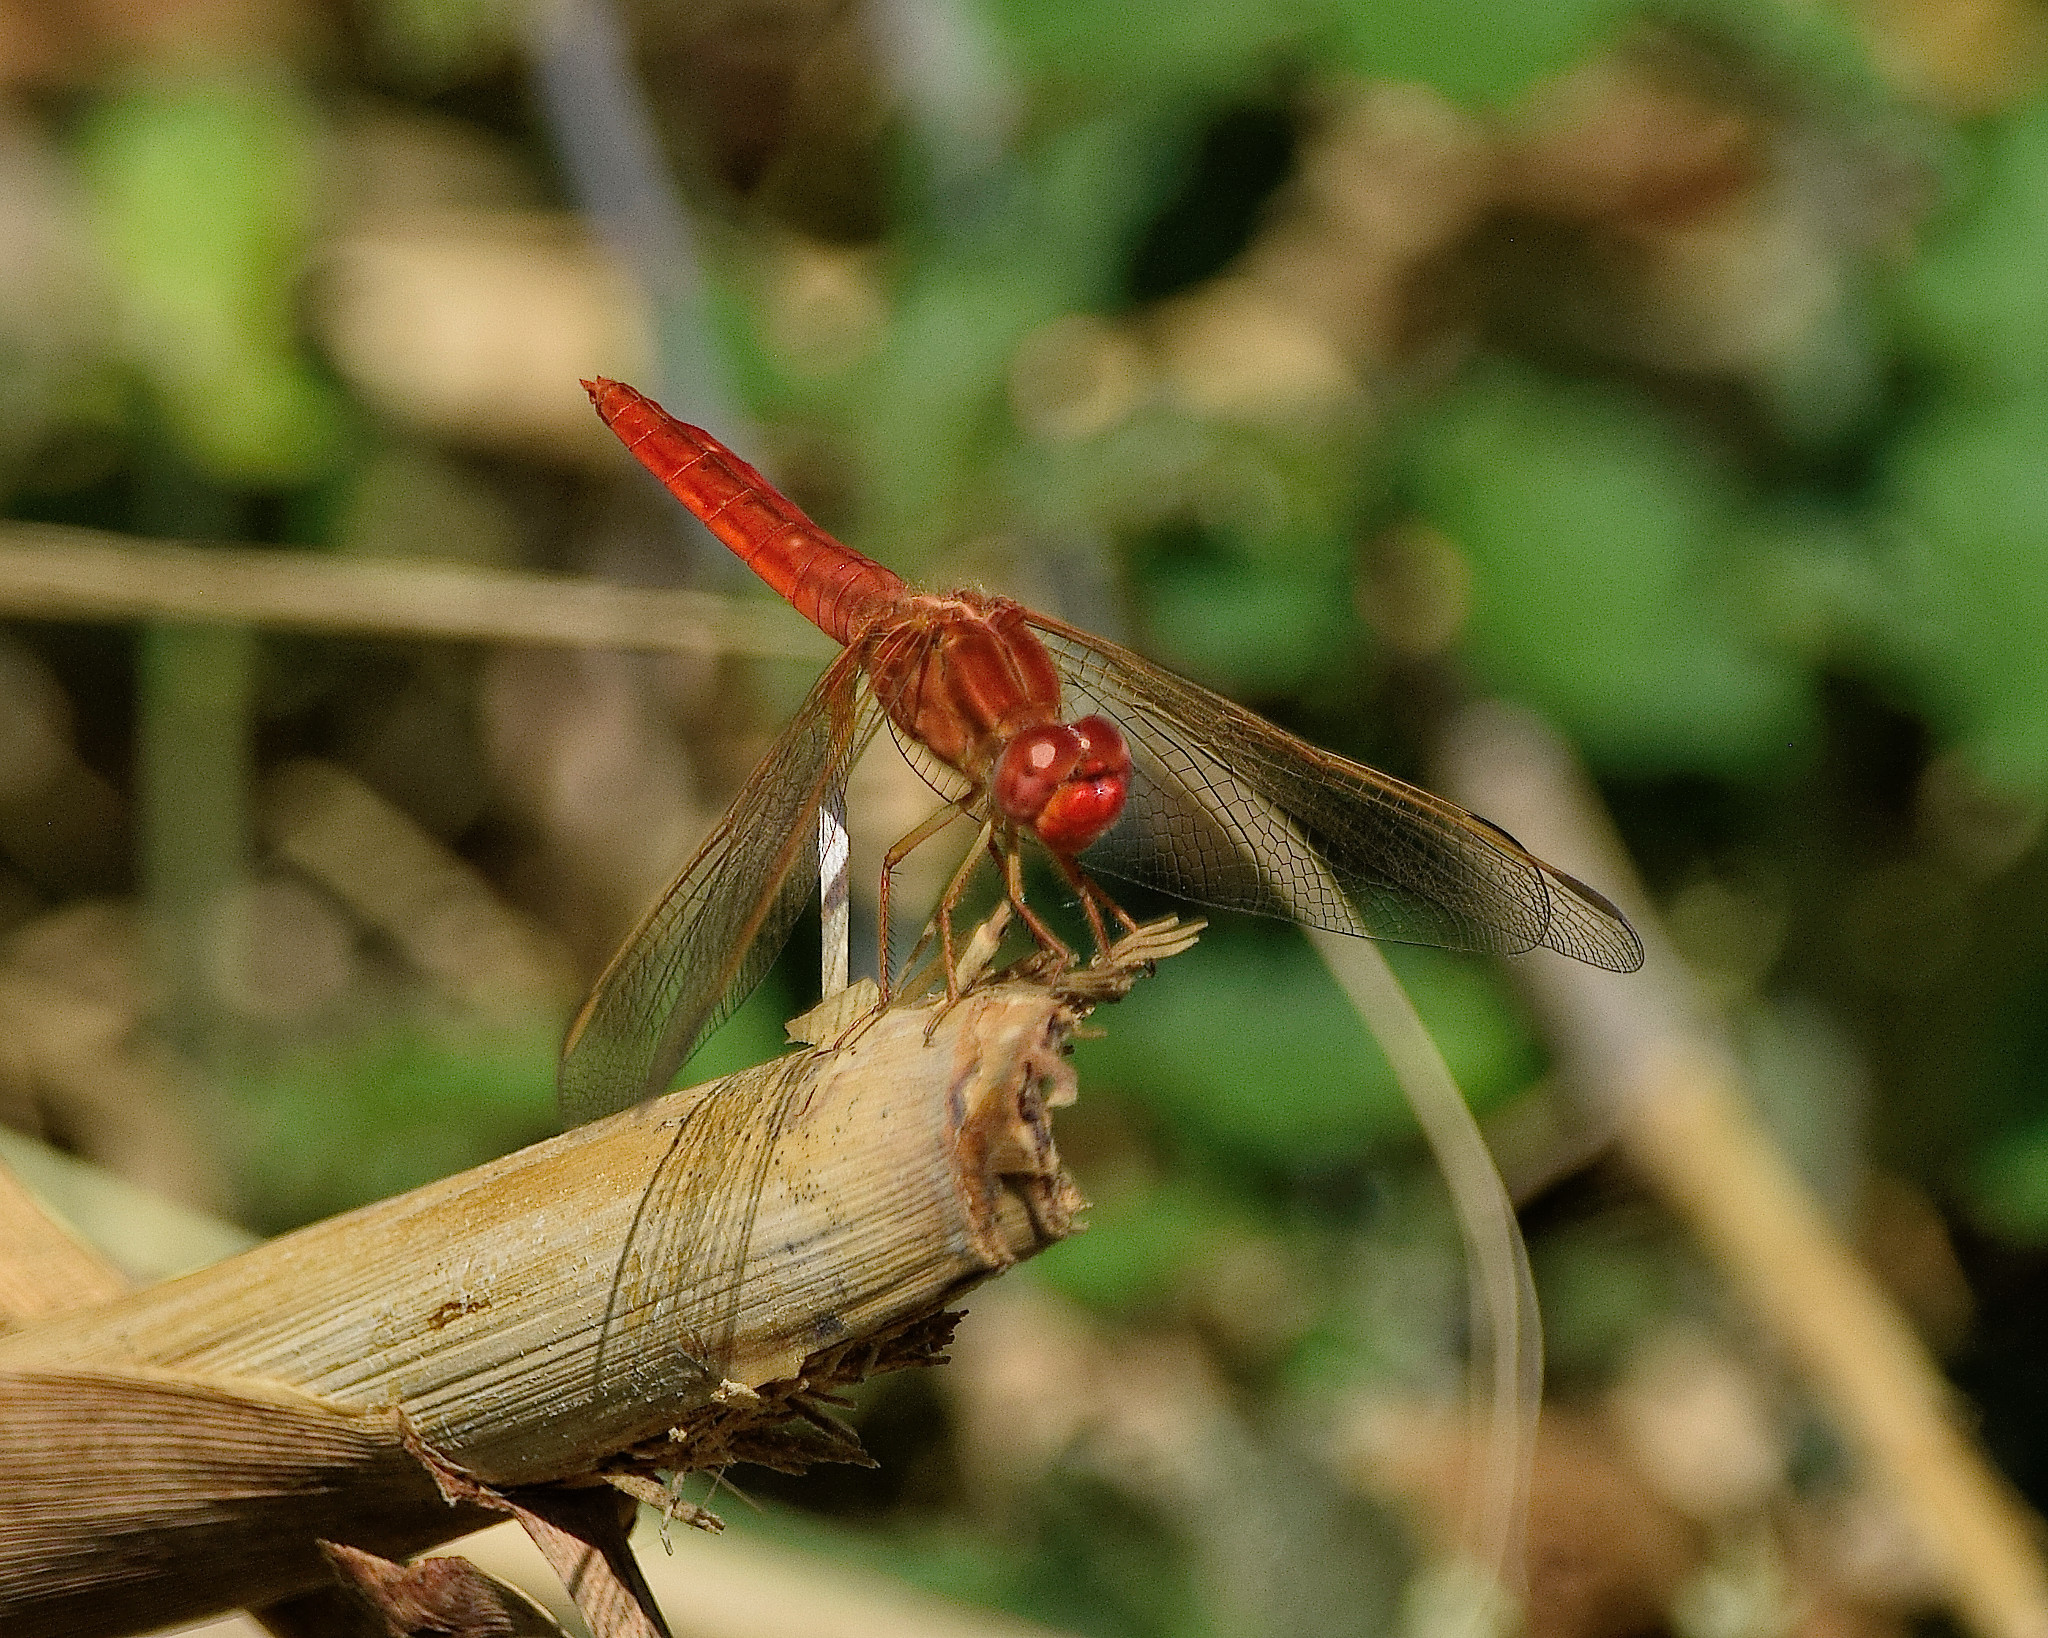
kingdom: Animalia
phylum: Arthropoda
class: Insecta
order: Odonata
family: Libellulidae
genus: Crocothemis
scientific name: Crocothemis erythraea
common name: Scarlet dragonfly
